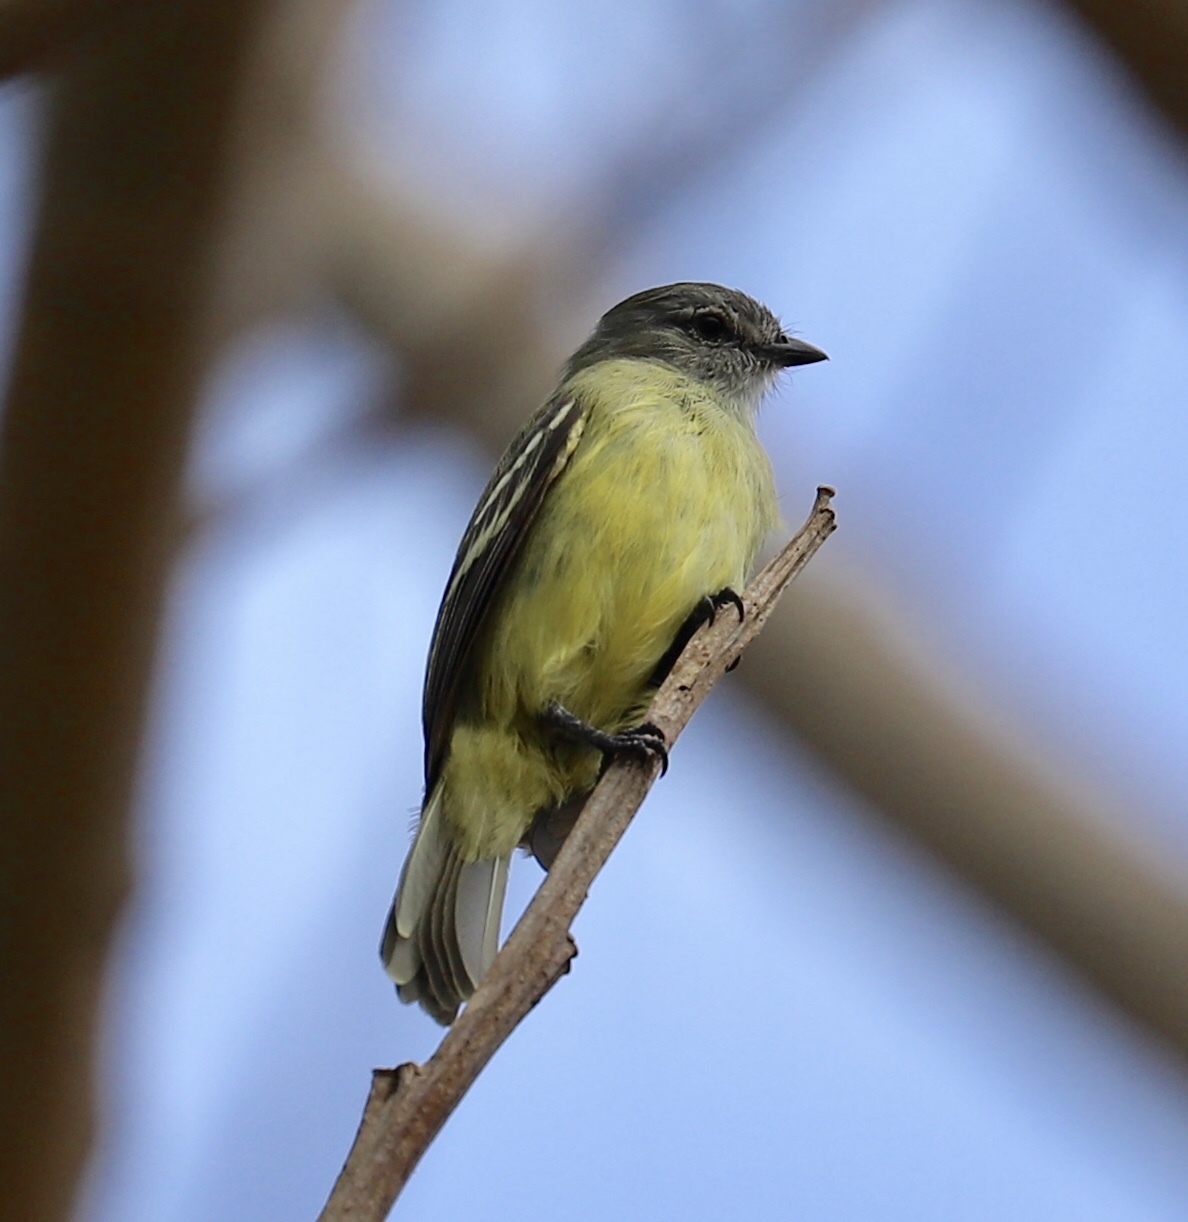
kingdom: Animalia
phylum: Chordata
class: Aves
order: Passeriformes
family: Tyrannidae
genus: Tyrannulus
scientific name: Tyrannulus elatus
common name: Yellow-crowned tyrannulet
